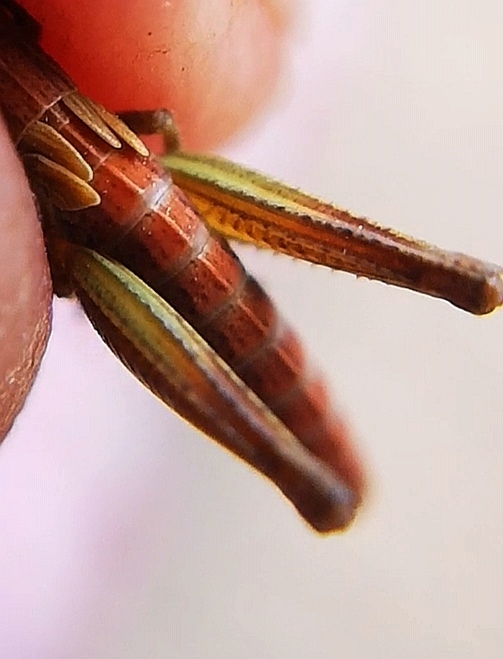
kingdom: Animalia
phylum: Arthropoda
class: Insecta
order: Orthoptera
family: Acrididae
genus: Pseudochorthippus
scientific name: Pseudochorthippus parallelus
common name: Meadow grasshopper
